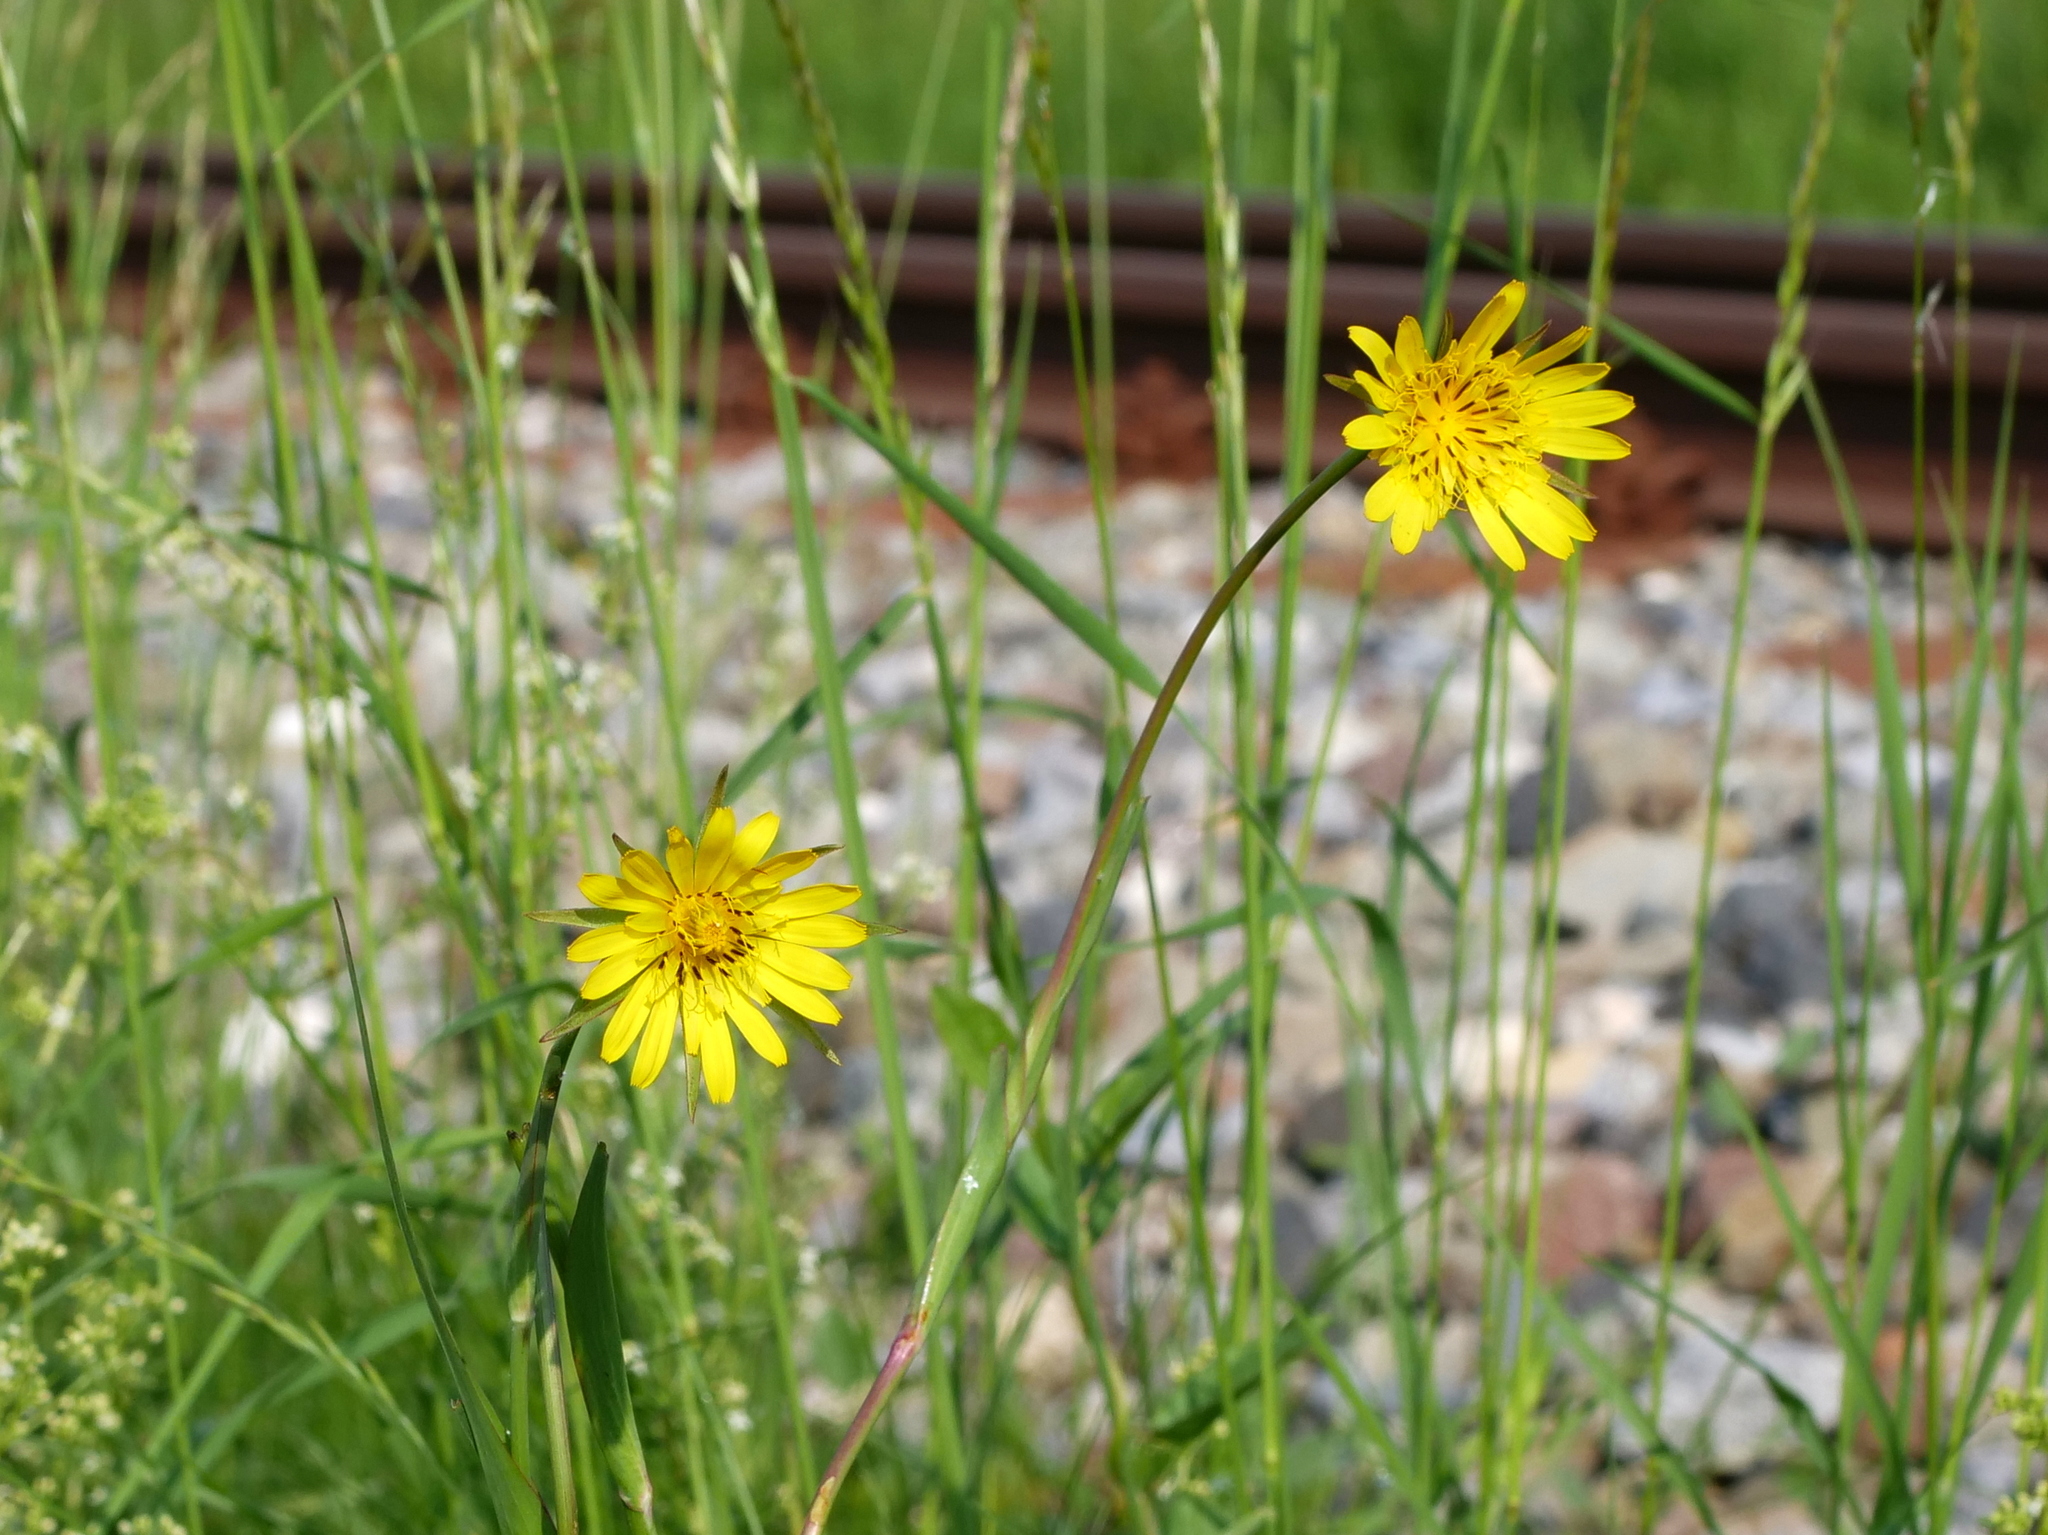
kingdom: Plantae
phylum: Tracheophyta
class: Magnoliopsida
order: Asterales
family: Asteraceae
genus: Tragopogon
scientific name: Tragopogon pratensis
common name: Goat's-beard
